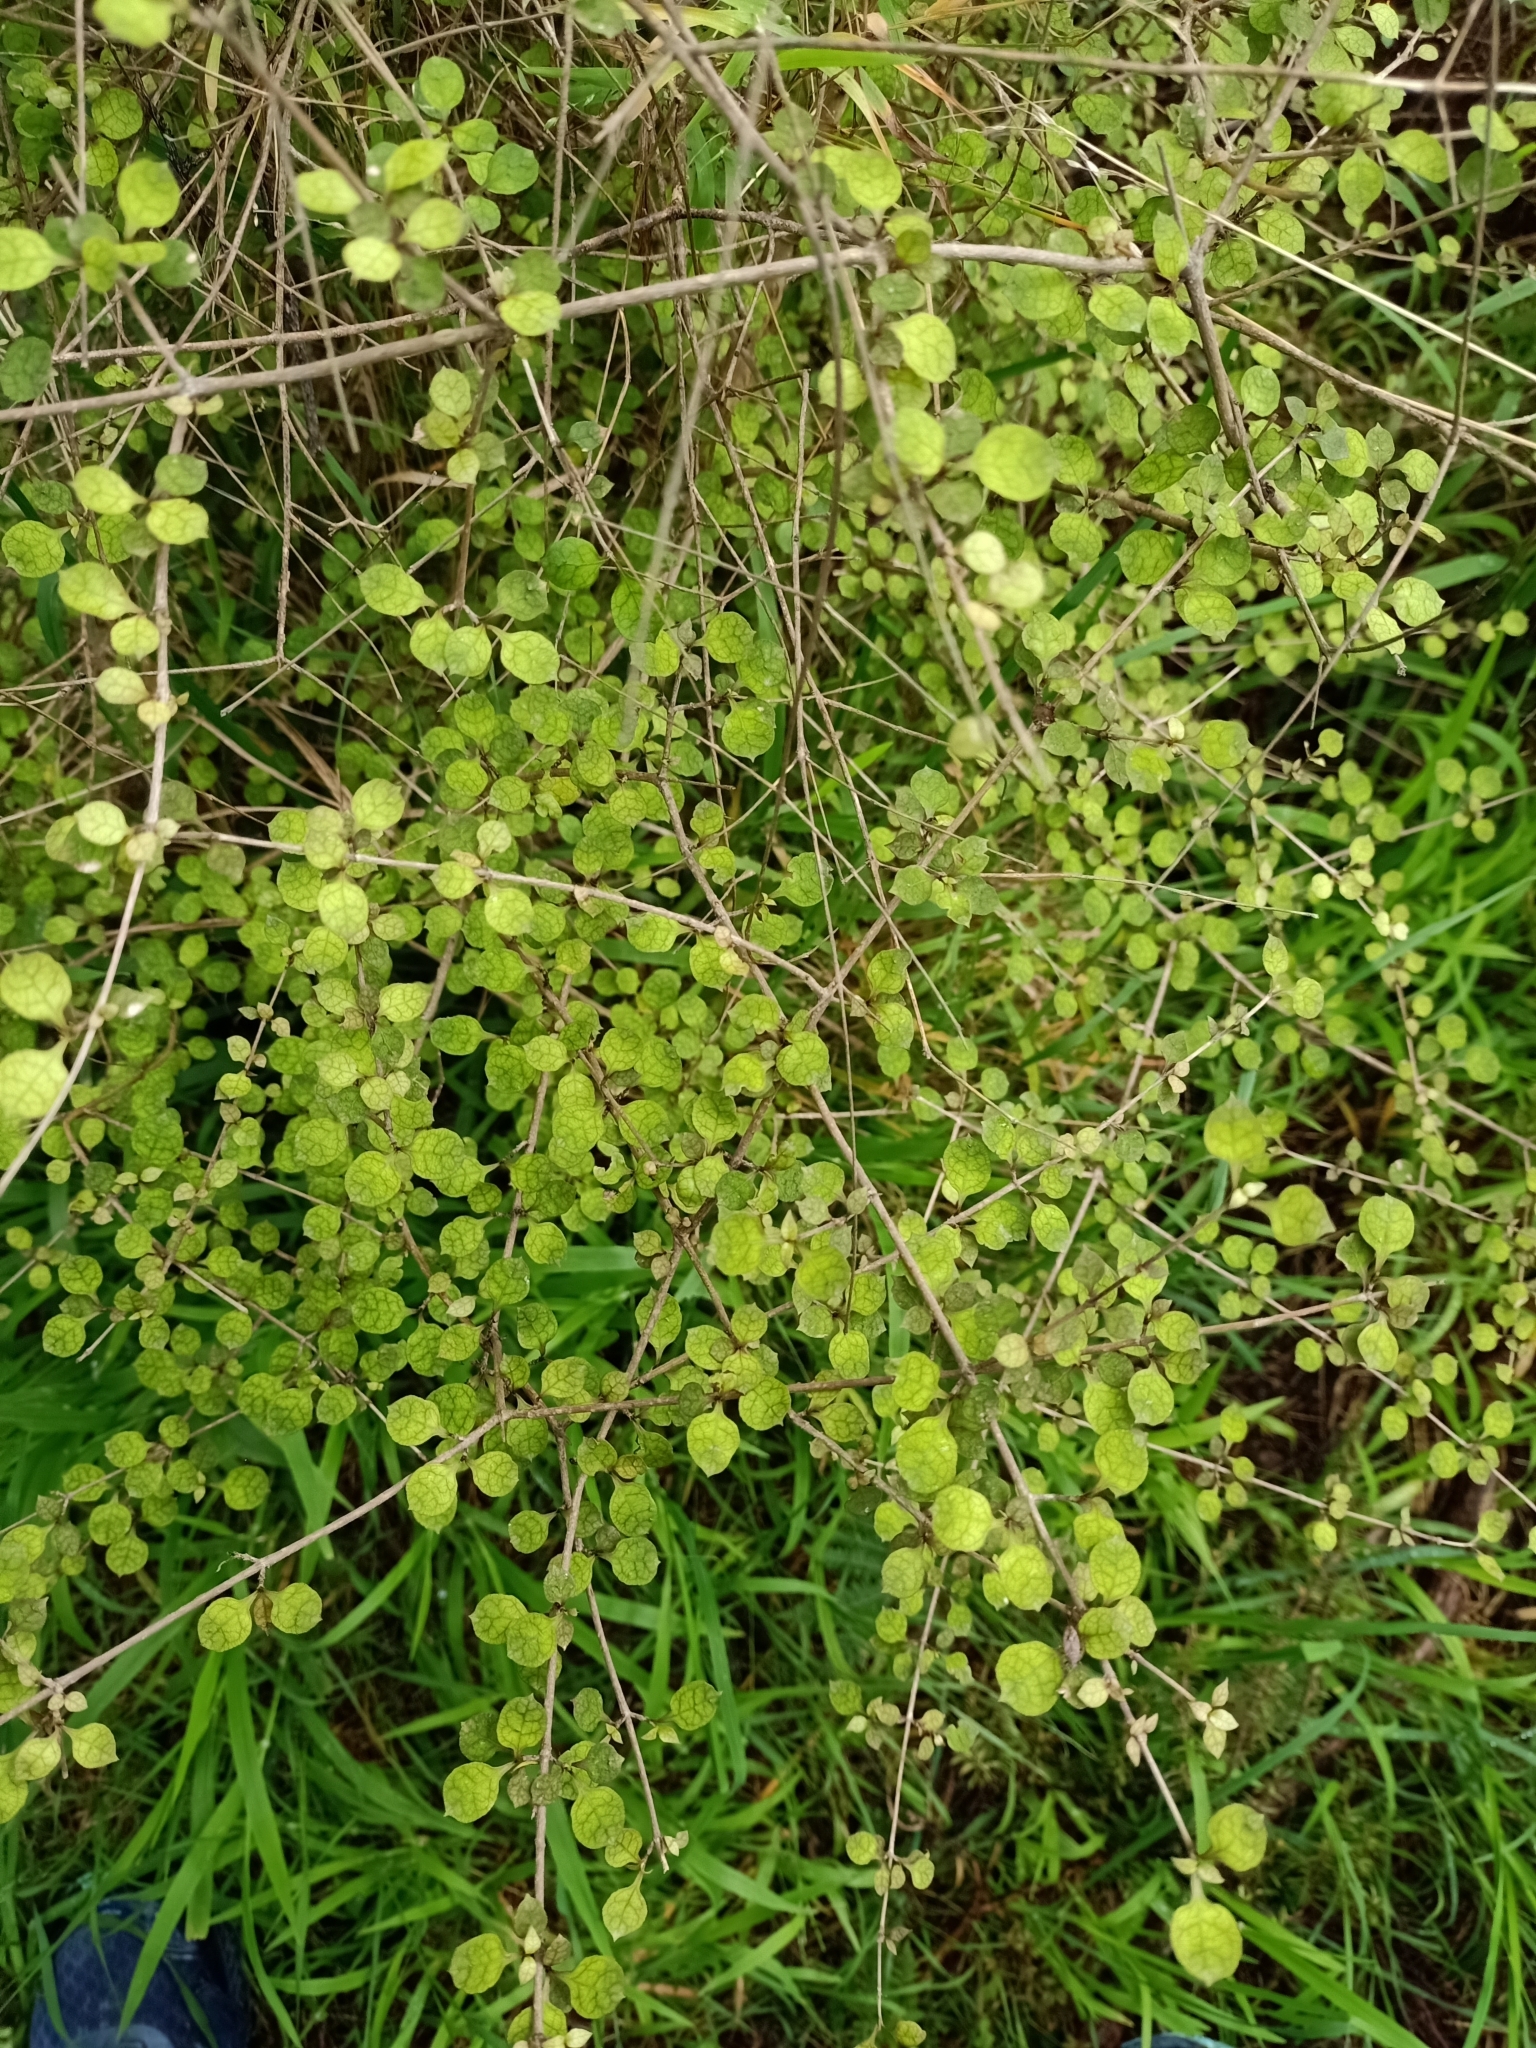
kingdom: Plantae
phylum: Tracheophyta
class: Magnoliopsida
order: Gentianales
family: Rubiaceae
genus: Coprosma
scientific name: Coprosma areolata
